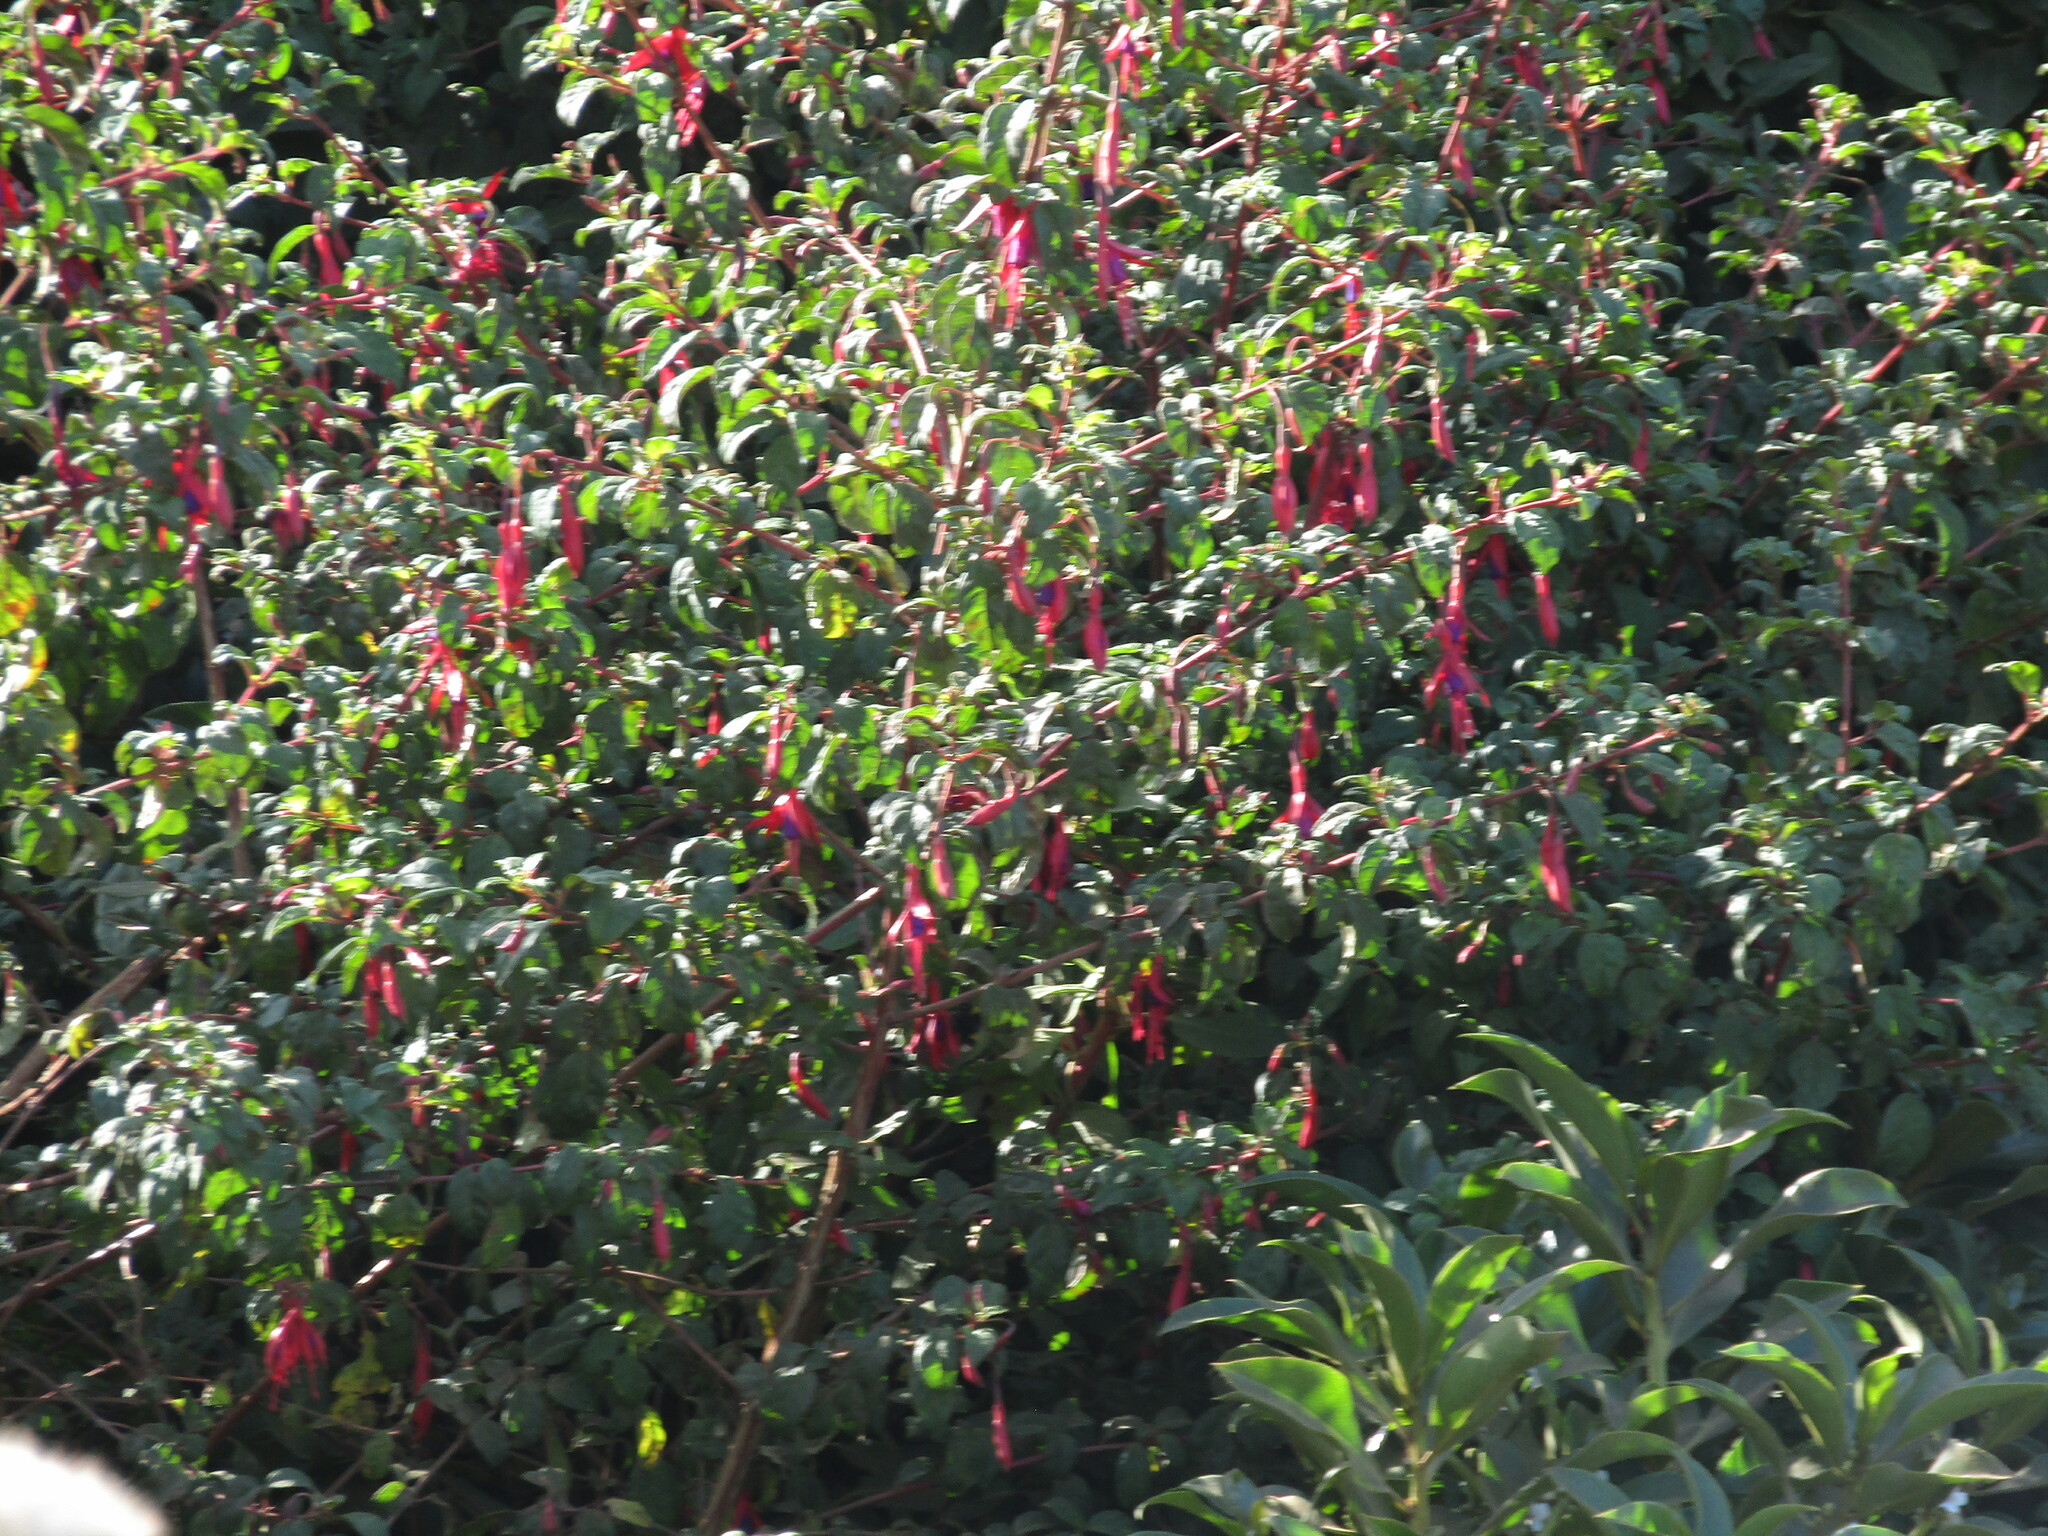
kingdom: Plantae
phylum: Tracheophyta
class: Magnoliopsida
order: Myrtales
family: Onagraceae
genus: Fuchsia
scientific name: Fuchsia magellanica
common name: Hardy fuchsia
